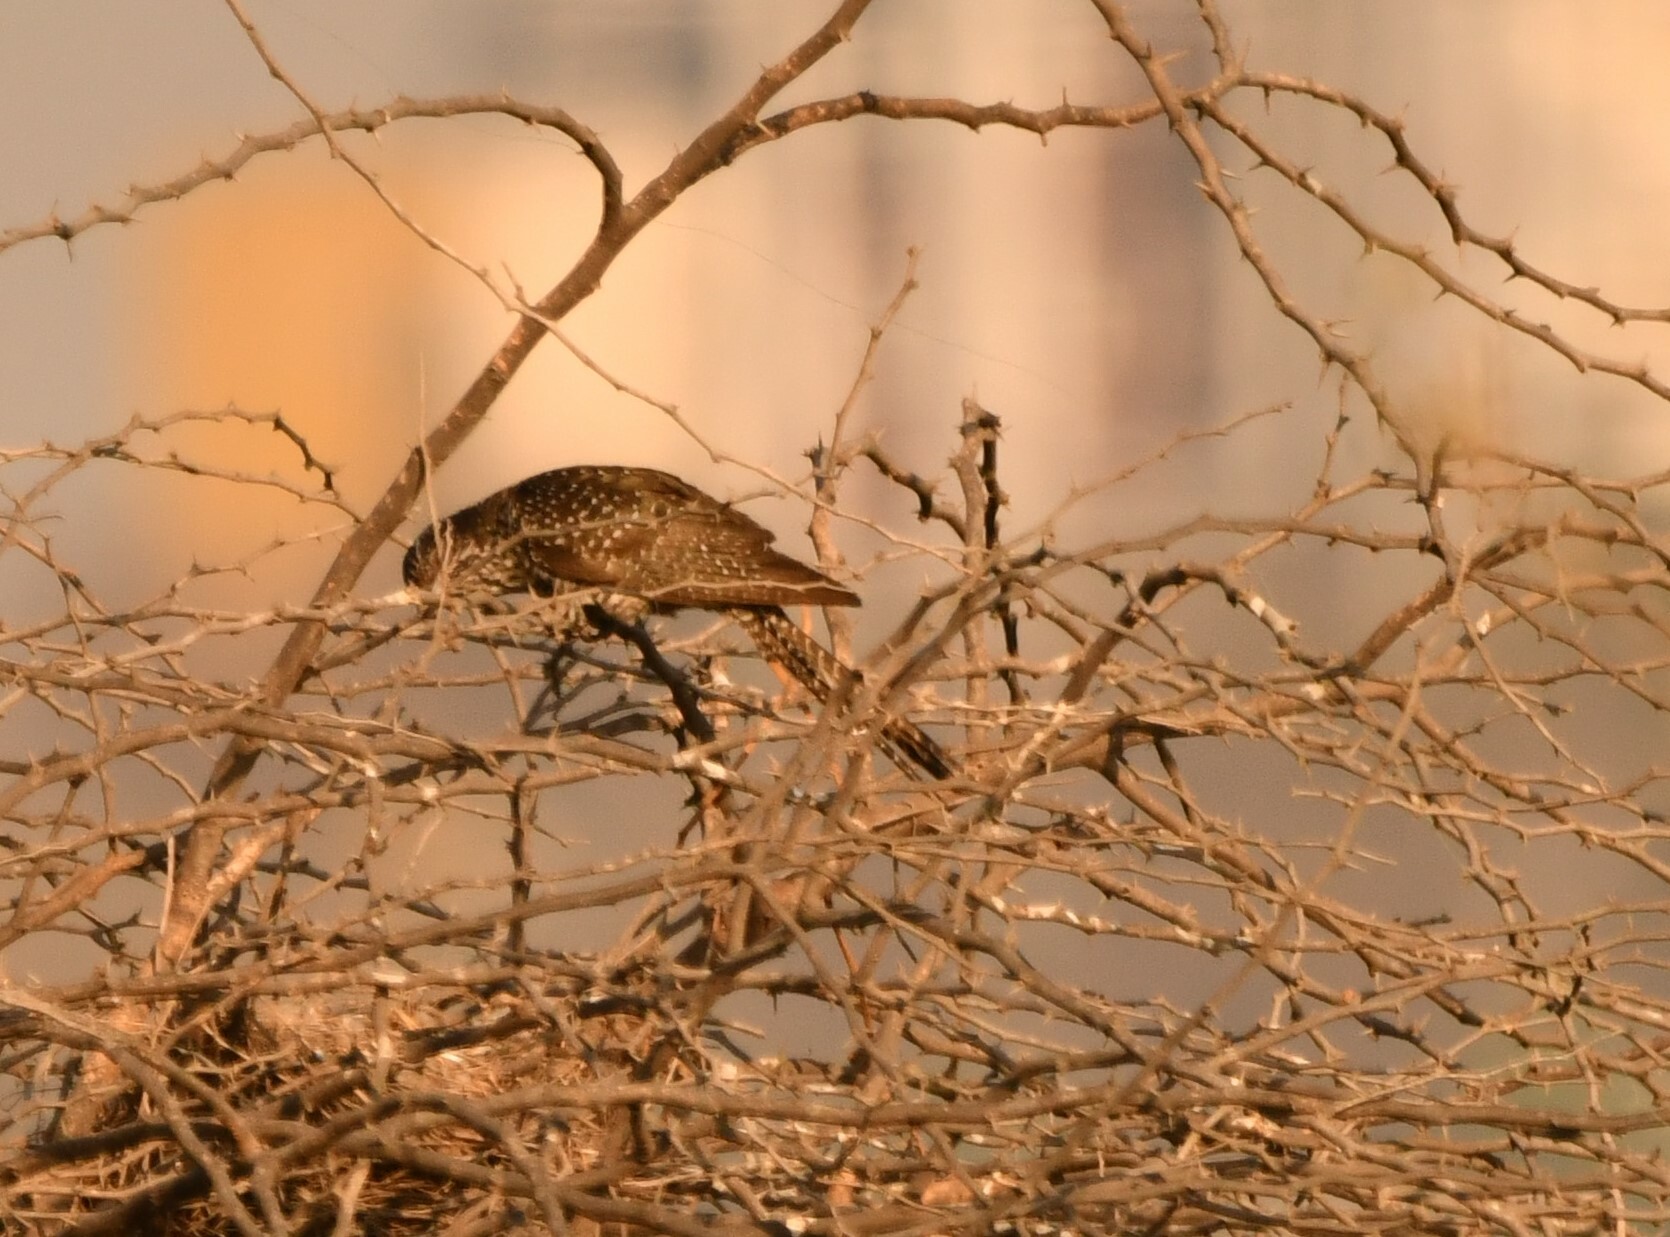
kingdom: Animalia
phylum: Chordata
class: Aves
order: Cuculiformes
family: Cuculidae
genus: Eudynamys
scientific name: Eudynamys scolopaceus
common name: Asian koel
